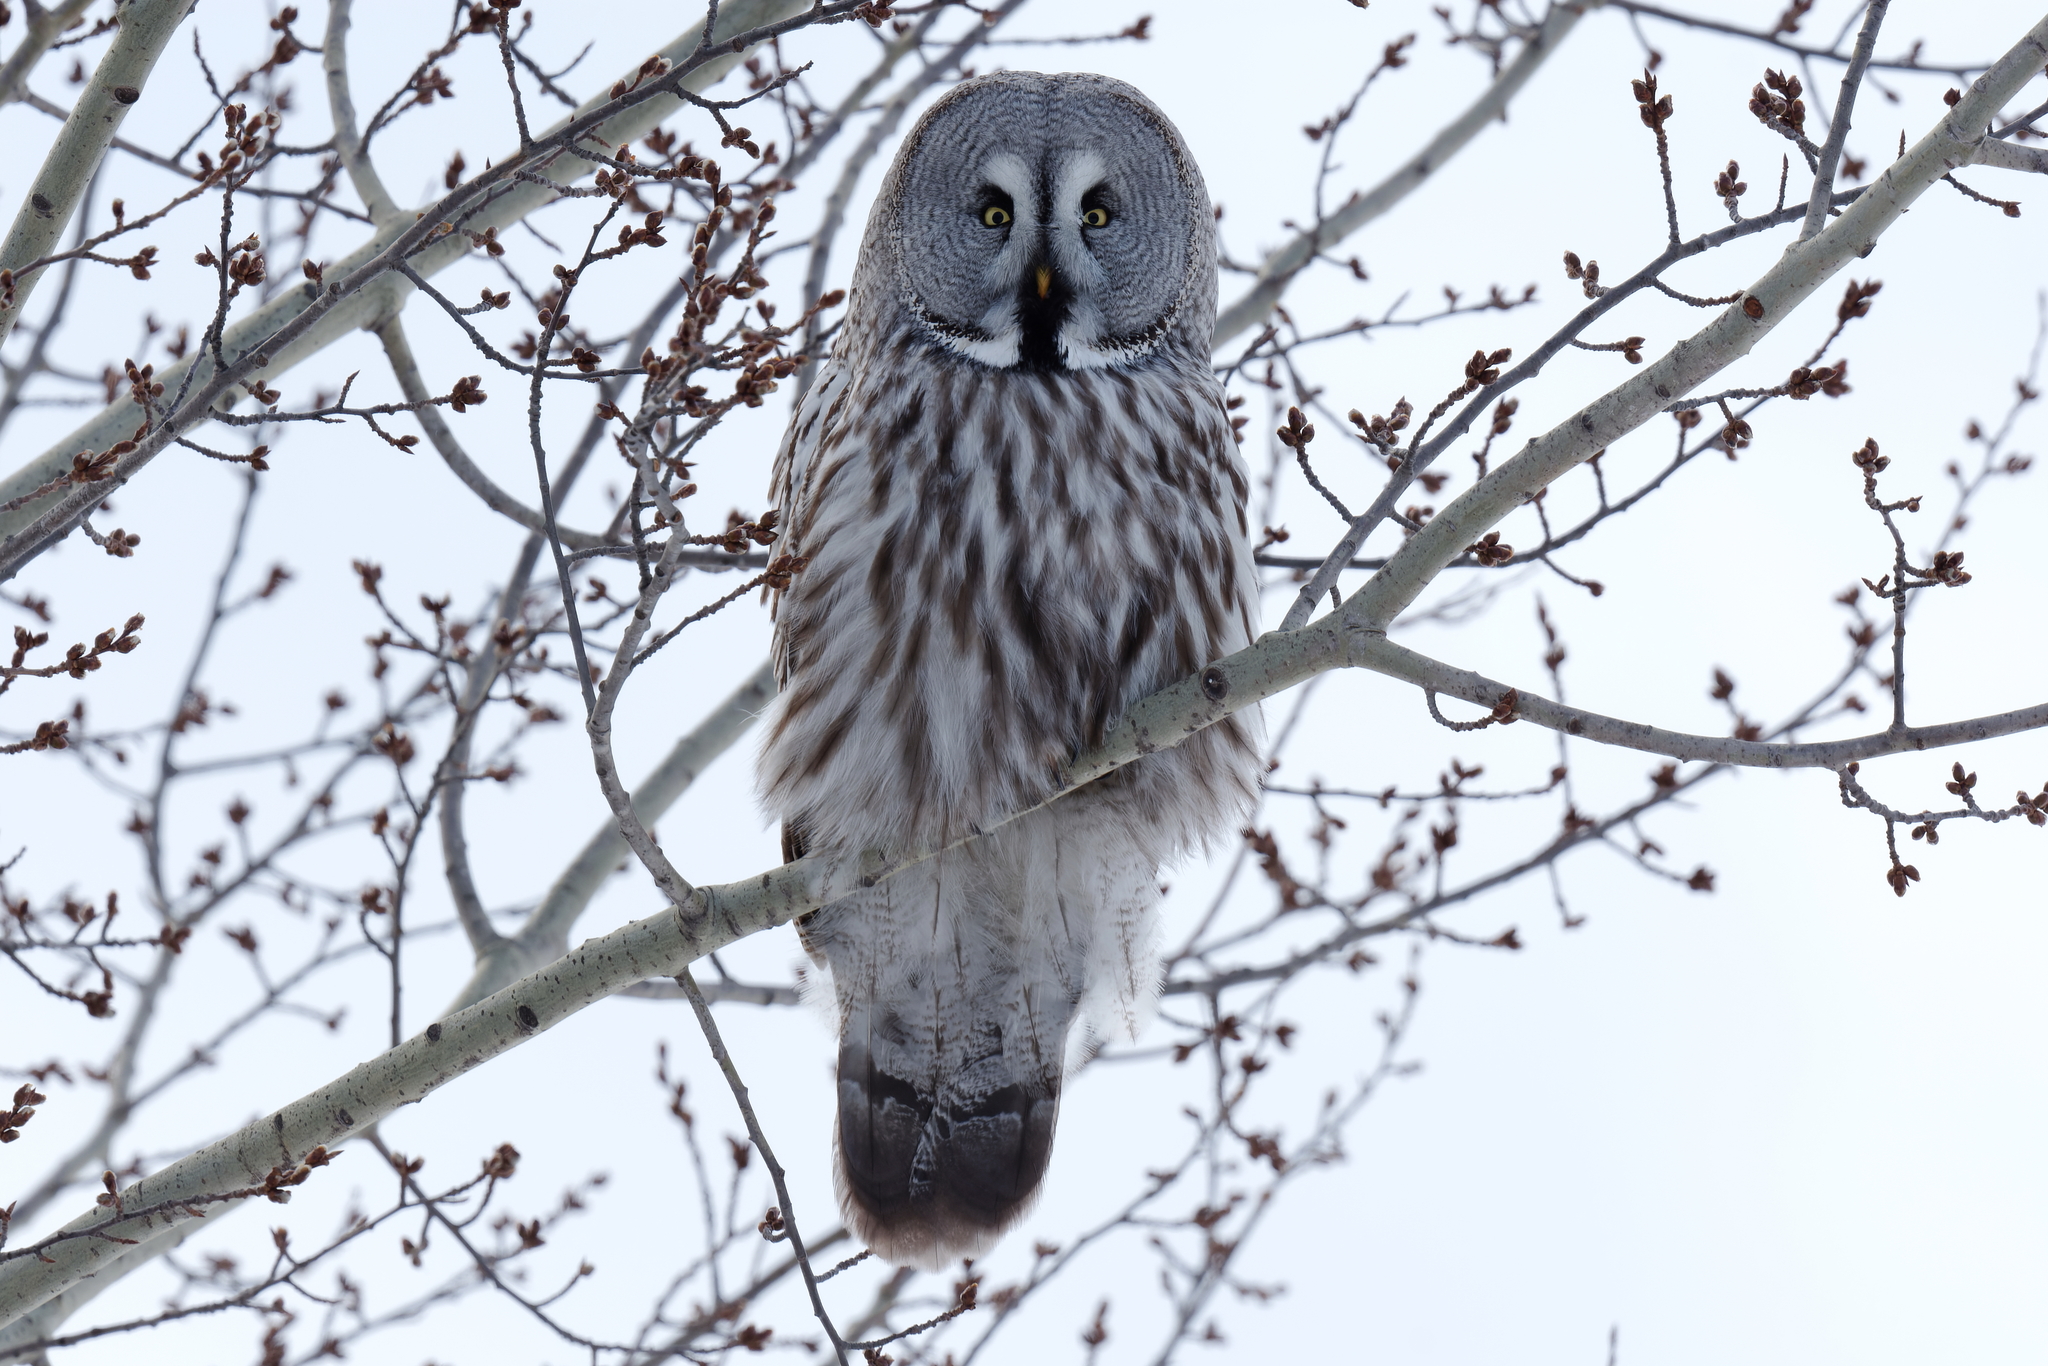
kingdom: Animalia
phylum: Chordata
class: Aves
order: Strigiformes
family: Strigidae
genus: Strix
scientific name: Strix nebulosa
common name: Great grey owl
